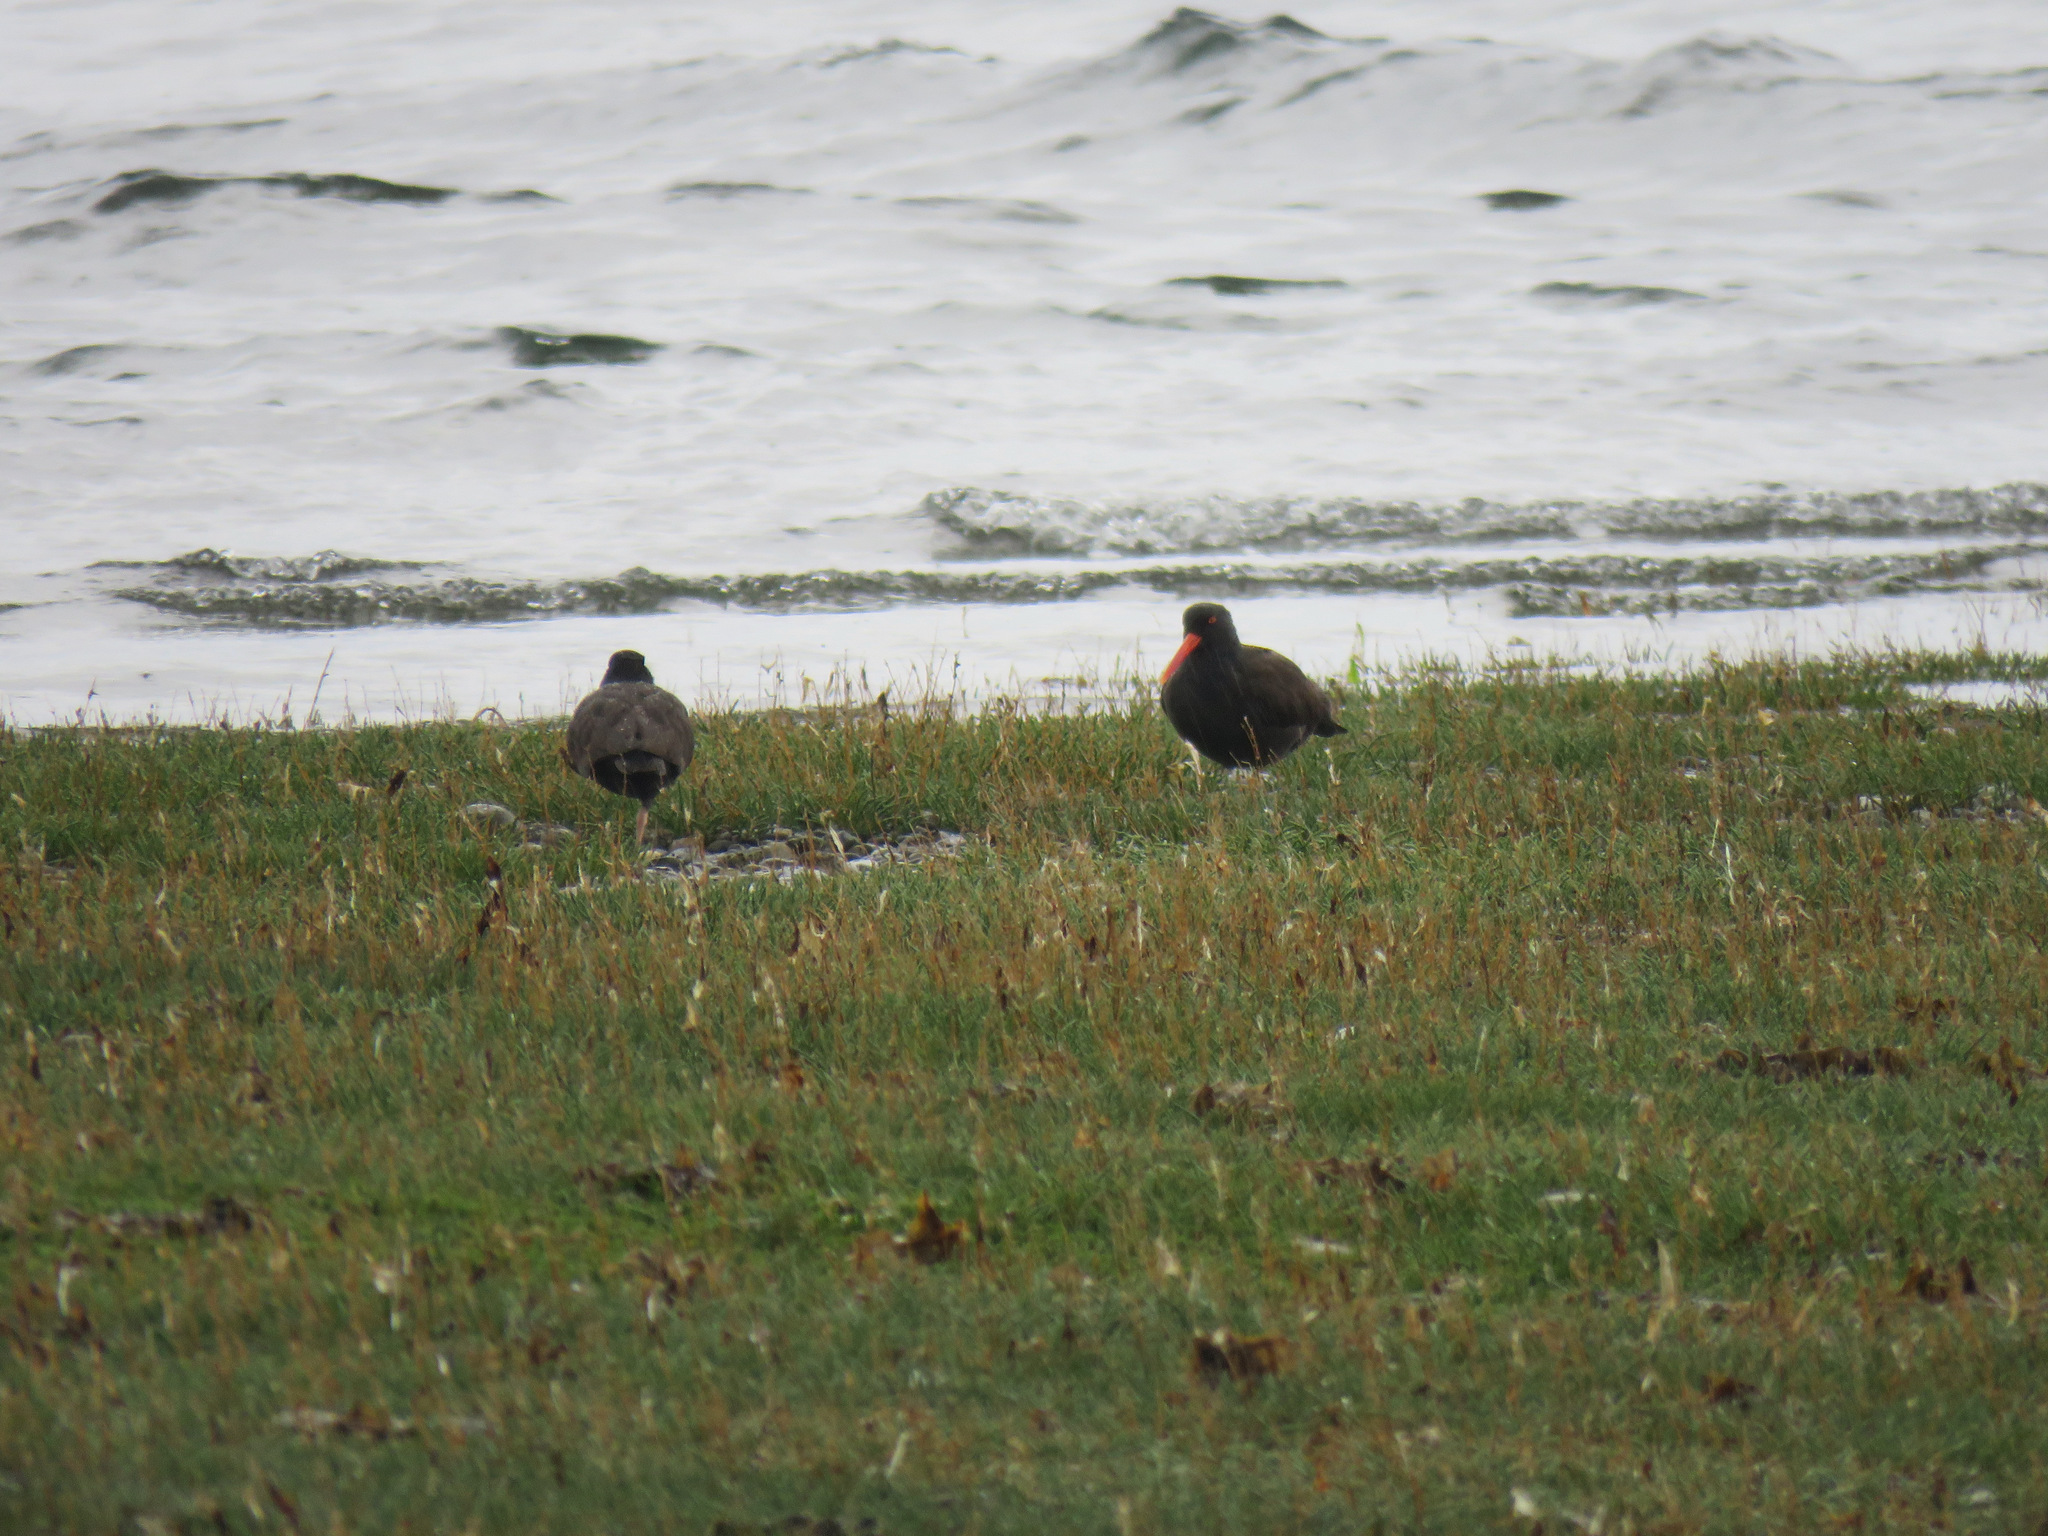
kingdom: Animalia
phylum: Chordata
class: Aves
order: Charadriiformes
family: Haematopodidae
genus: Haematopus
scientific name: Haematopus bachmani
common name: Black oystercatcher
